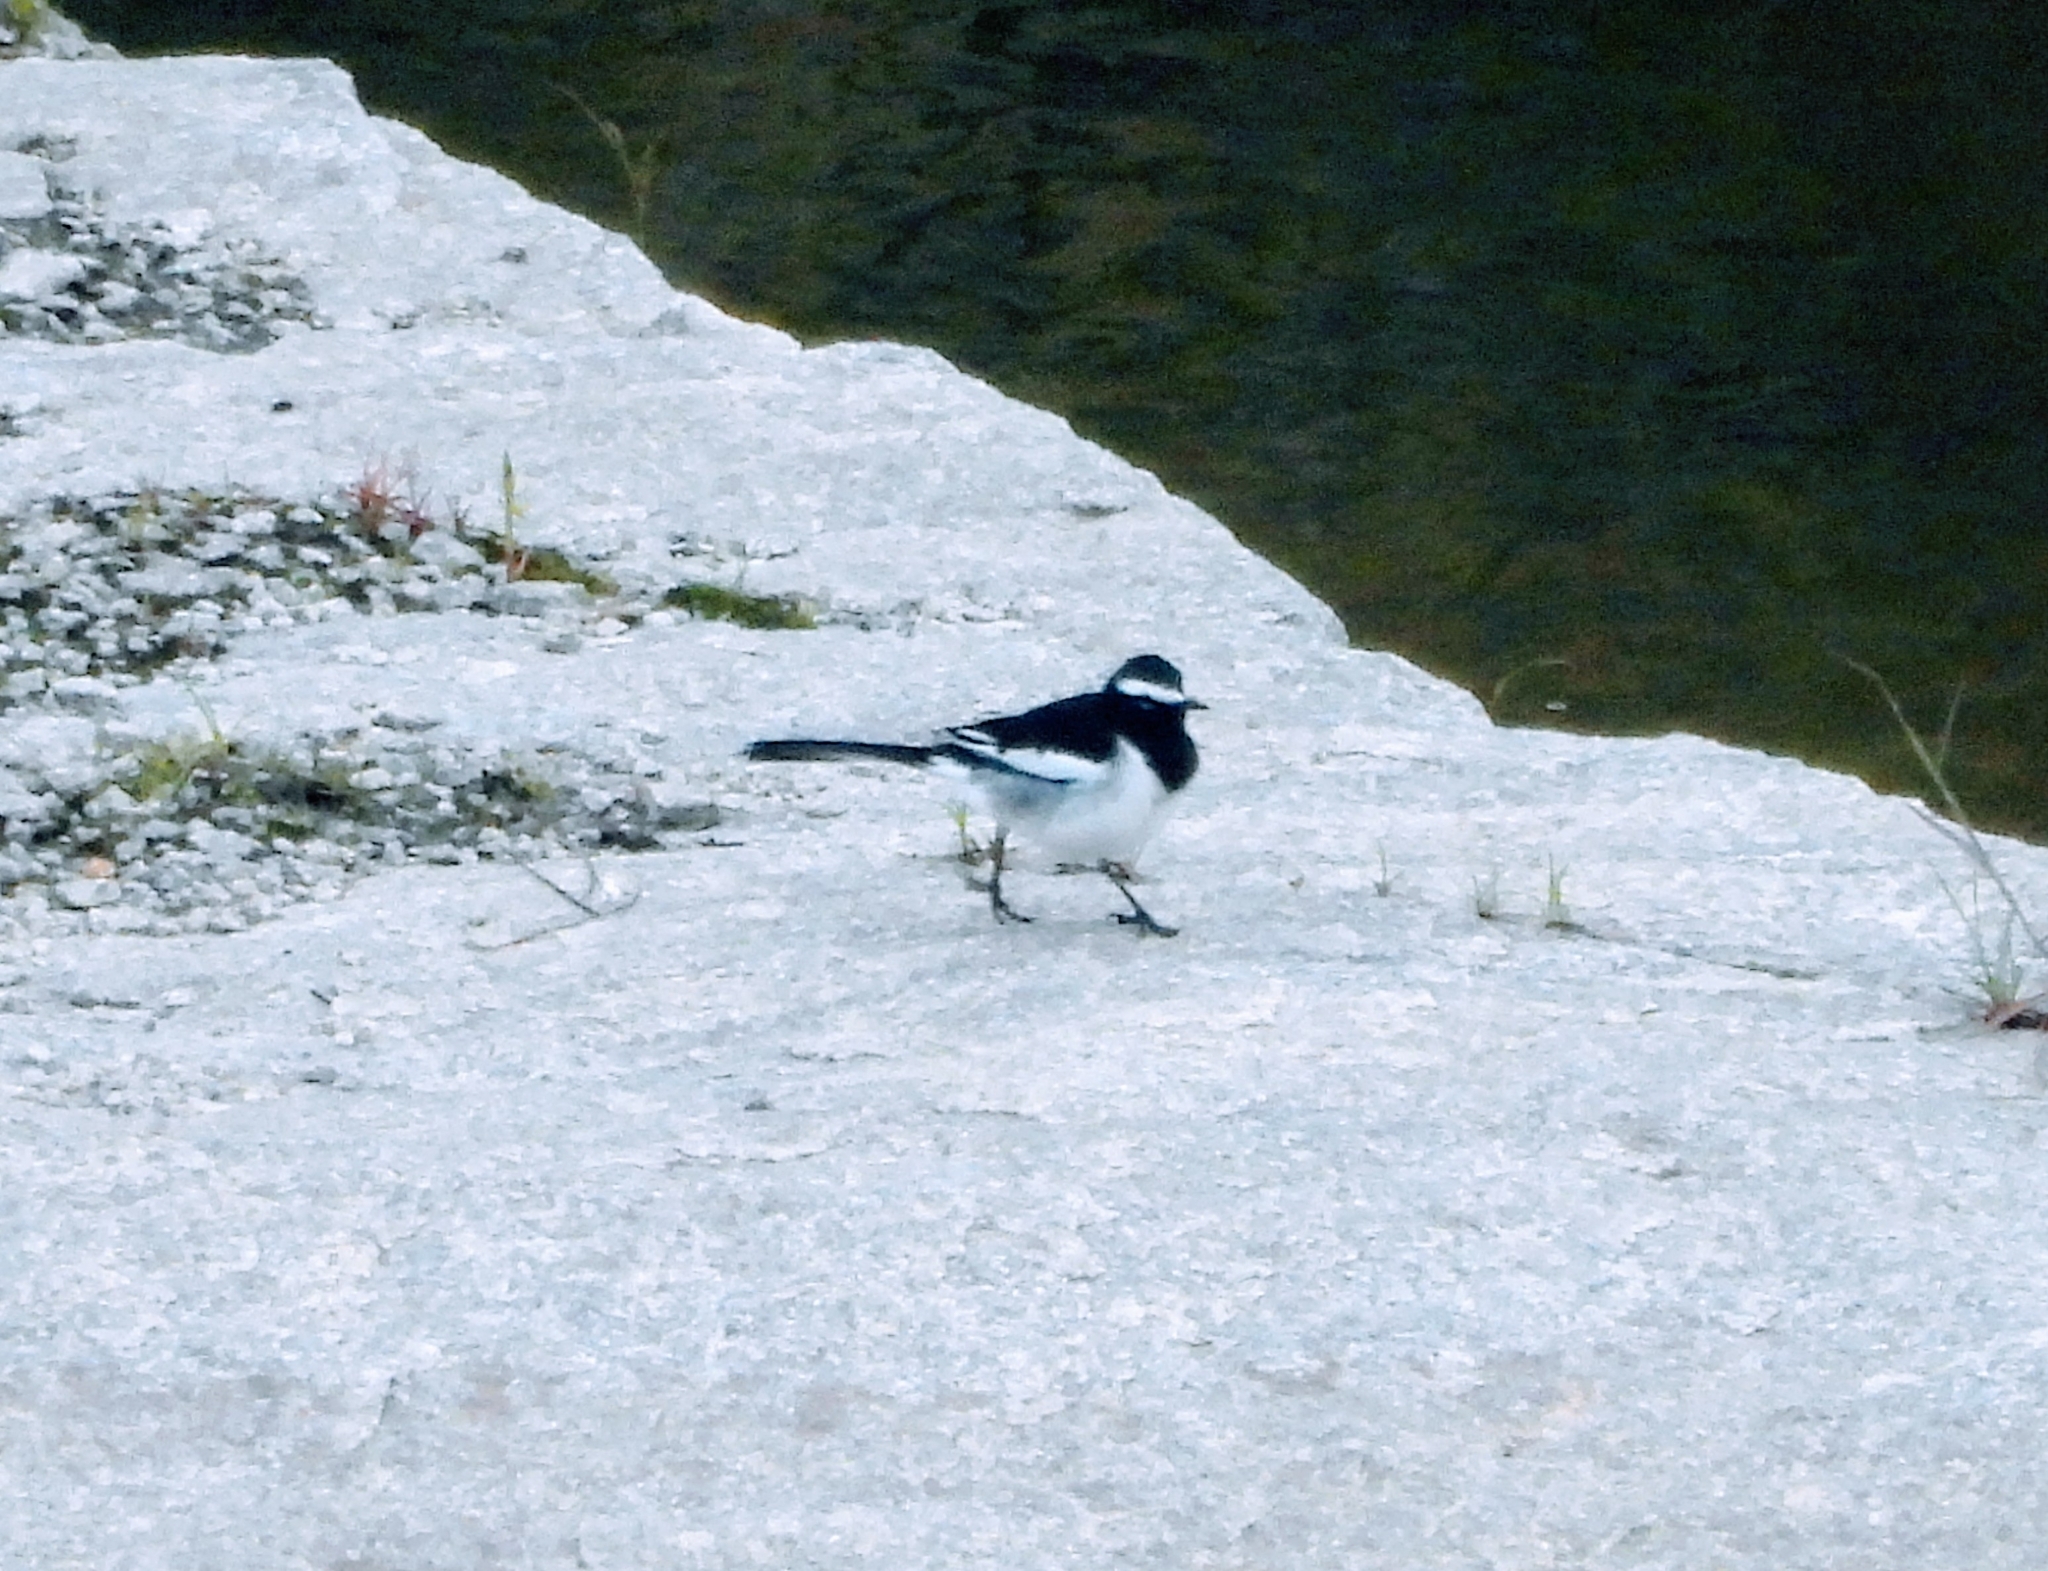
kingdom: Animalia
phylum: Chordata
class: Aves
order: Passeriformes
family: Motacillidae
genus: Motacilla
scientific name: Motacilla maderaspatensis
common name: White-browed wagtail
